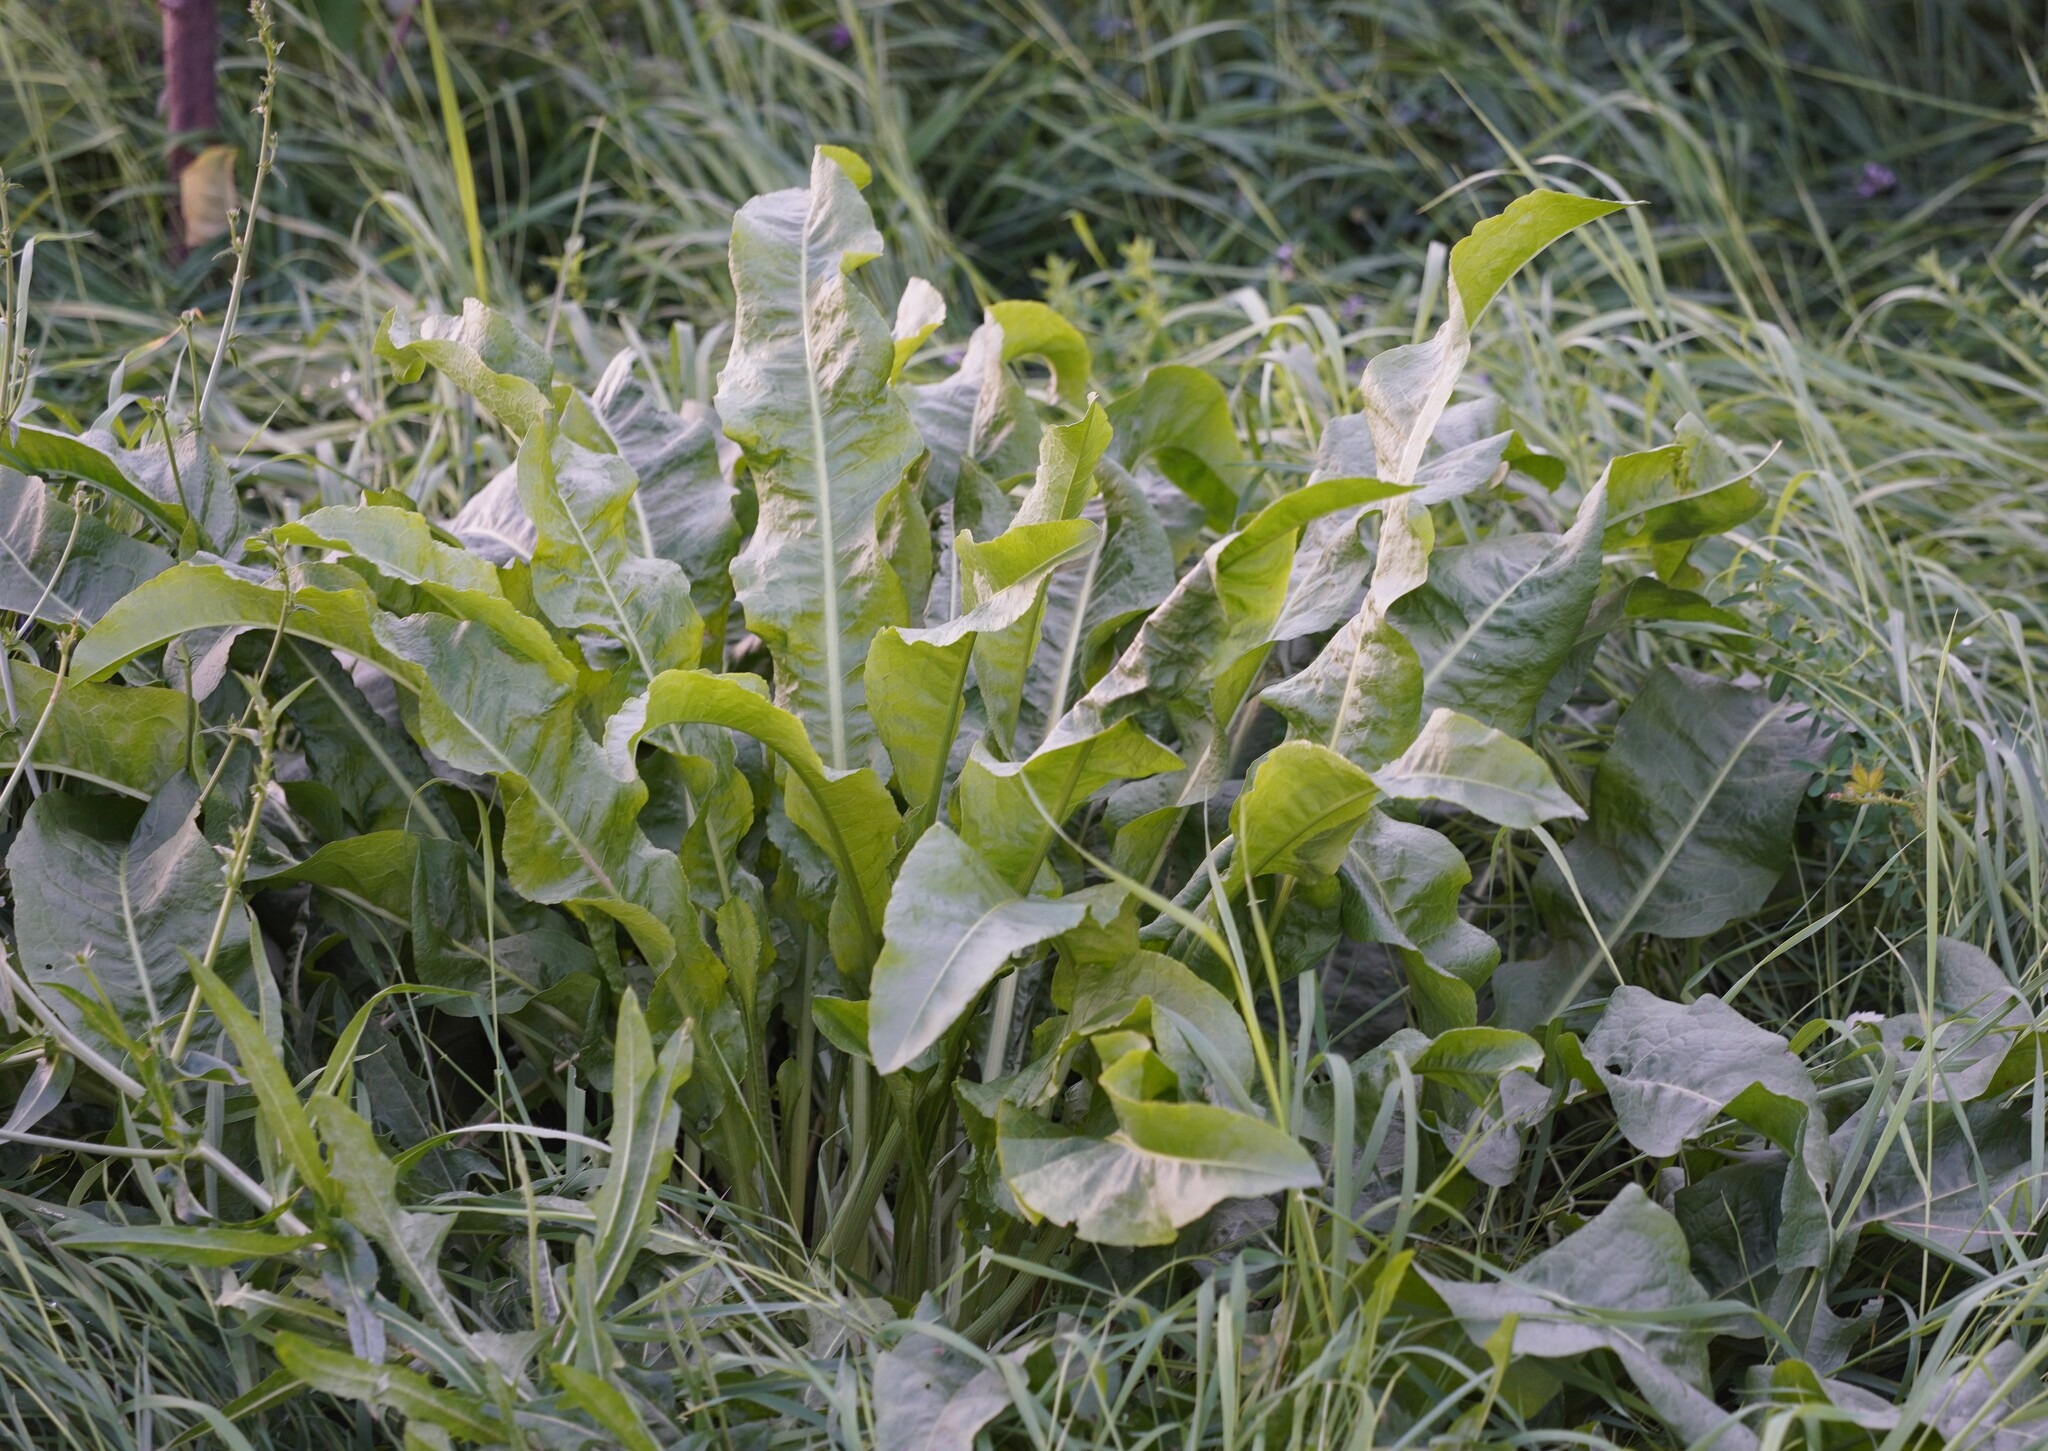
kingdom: Plantae
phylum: Tracheophyta
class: Magnoliopsida
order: Brassicales
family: Brassicaceae
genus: Armoracia
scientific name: Armoracia rusticana
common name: Horseradish
